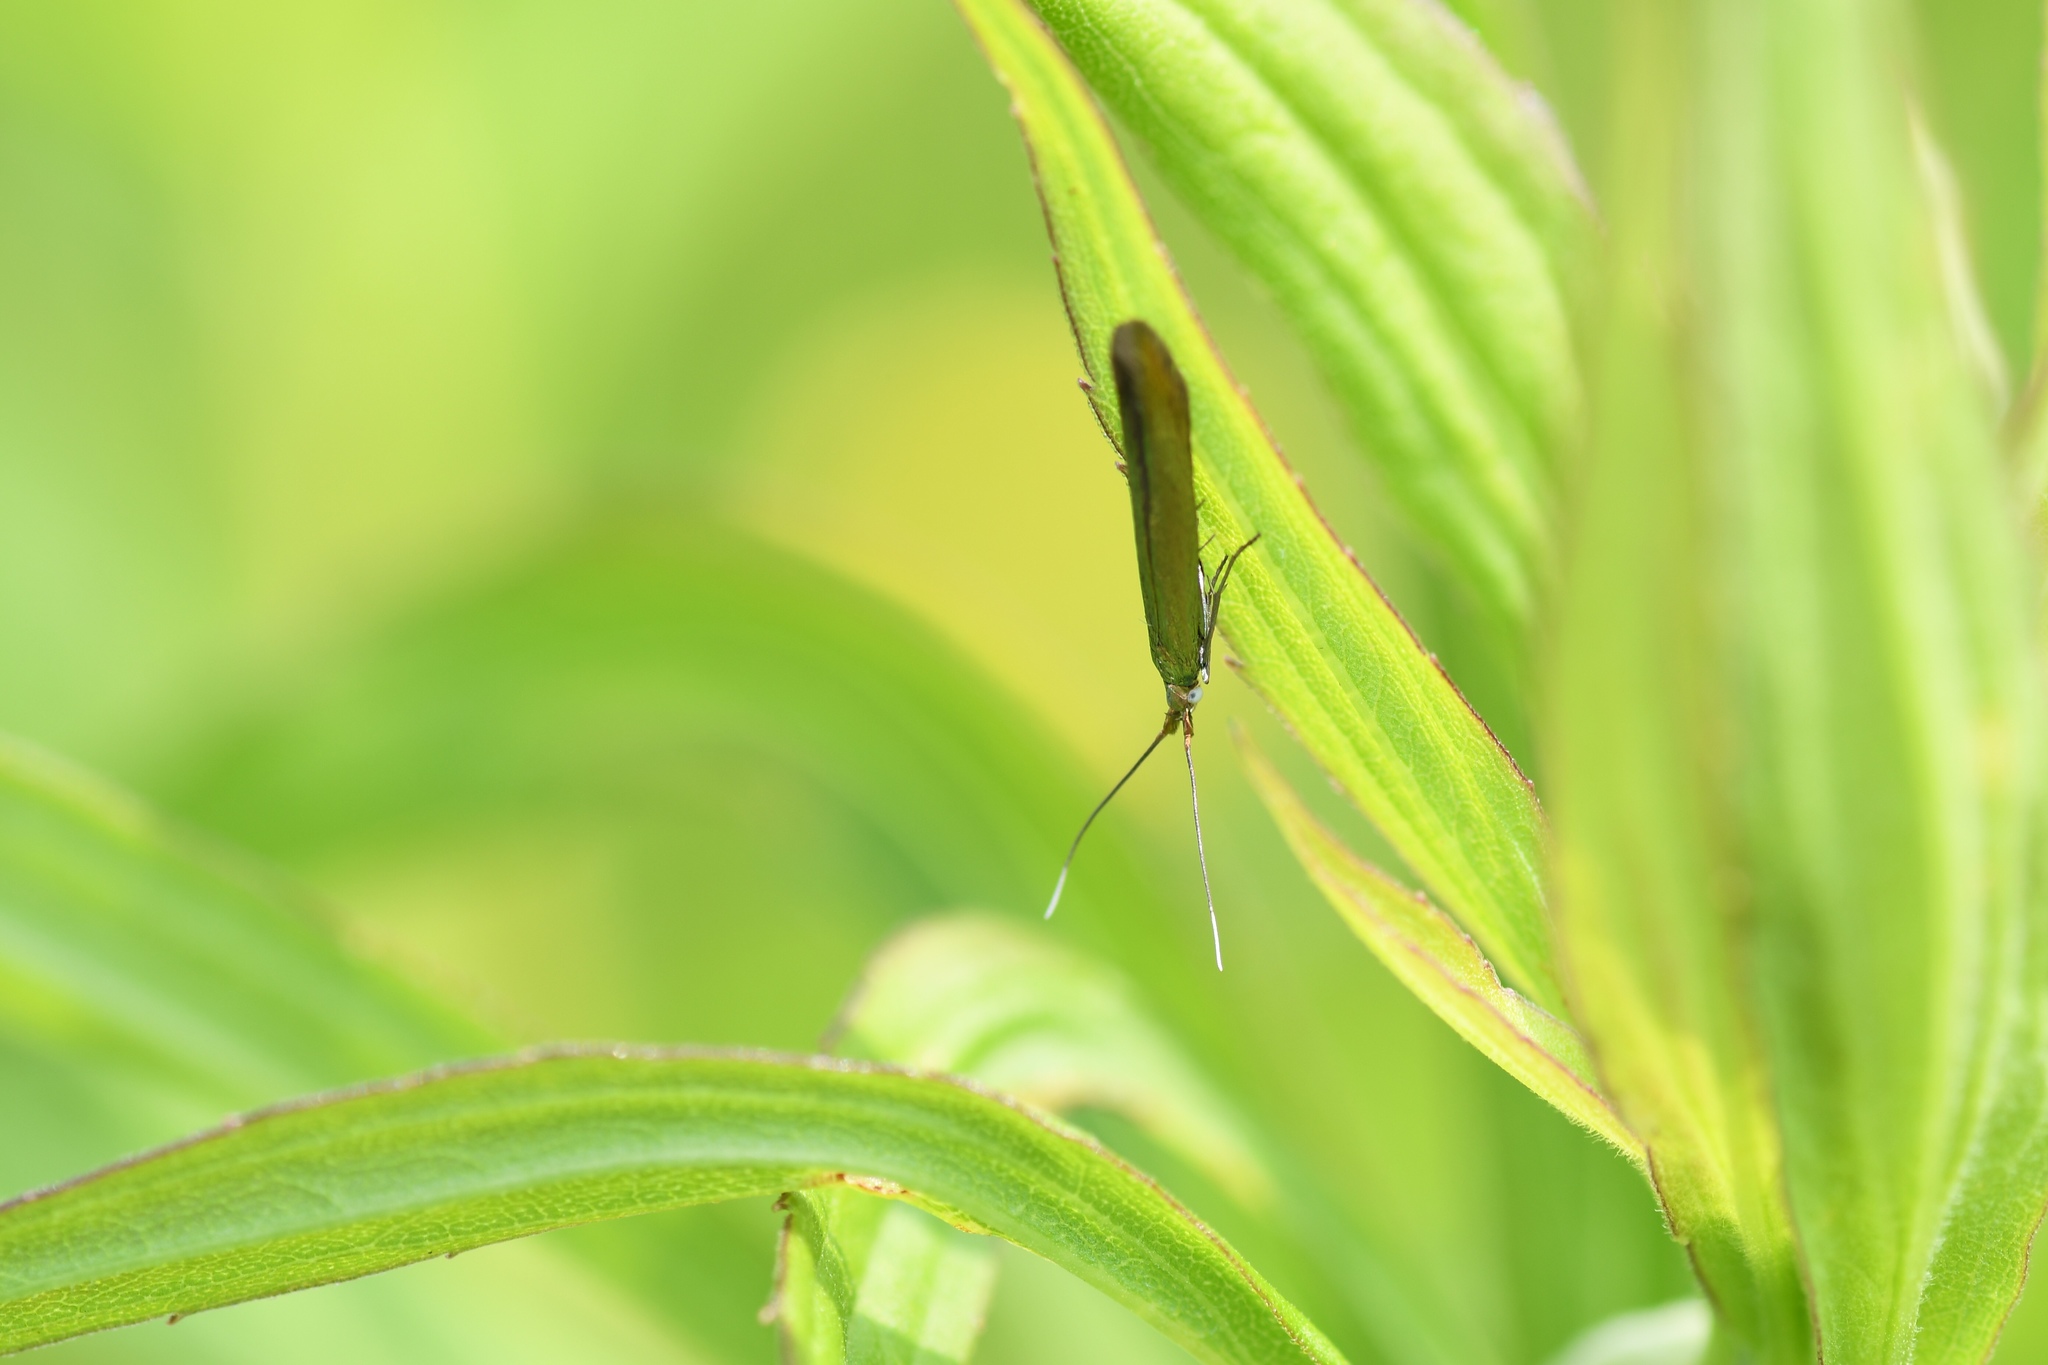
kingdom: Animalia
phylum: Arthropoda
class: Insecta
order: Lepidoptera
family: Coleophoridae
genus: Coleophora
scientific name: Coleophora trifolii
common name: Large clover case-bearer
